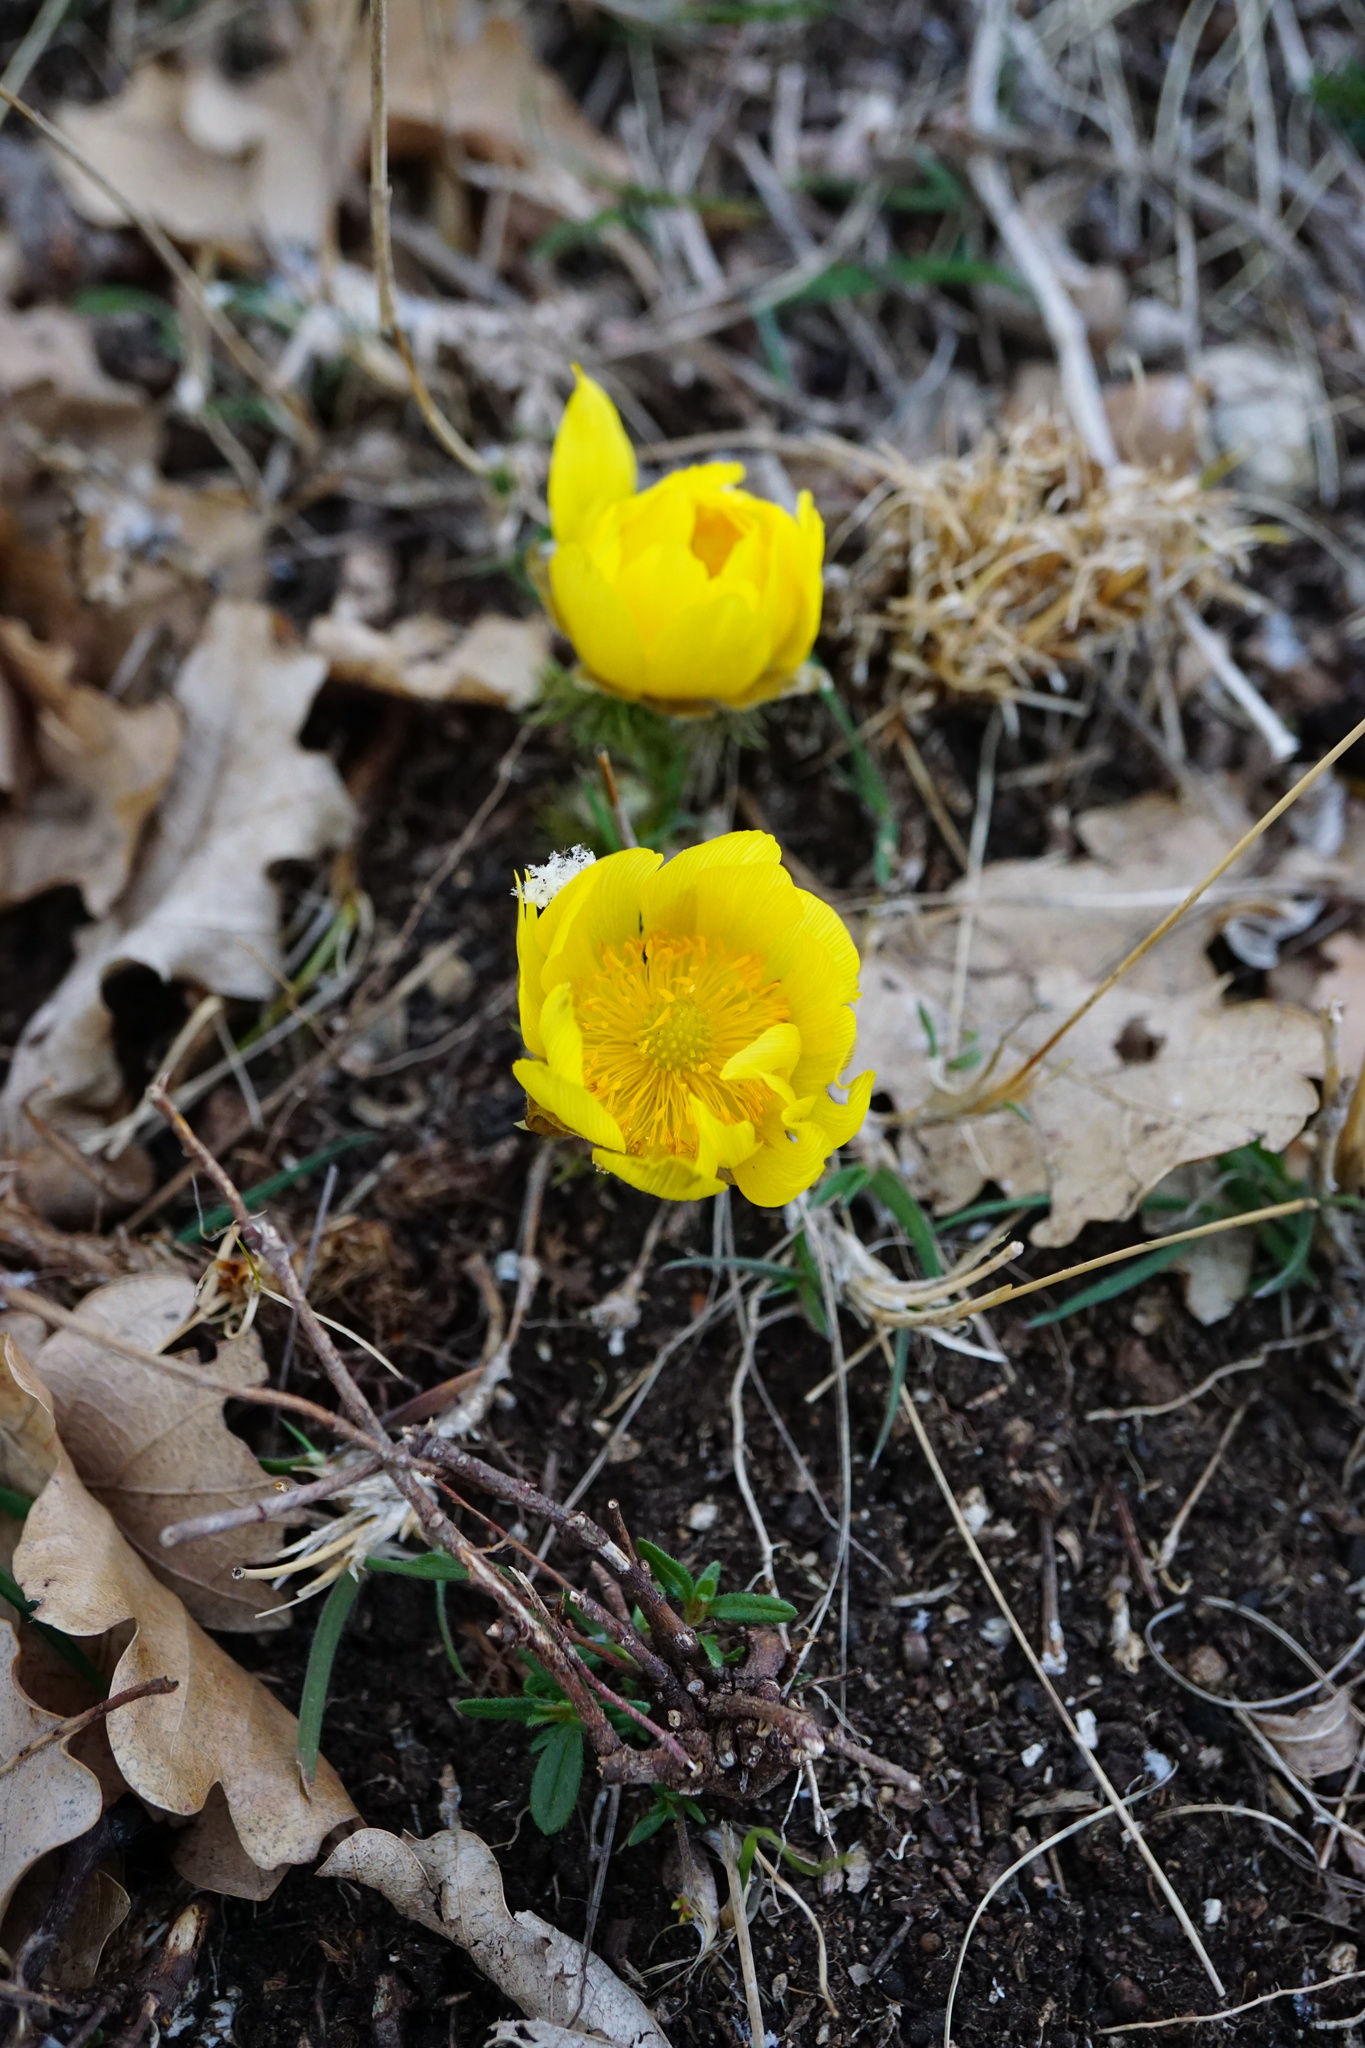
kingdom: Plantae
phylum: Tracheophyta
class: Magnoliopsida
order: Ranunculales
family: Ranunculaceae
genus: Adonis
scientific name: Adonis vernalis
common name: Yellow pheasants-eye
